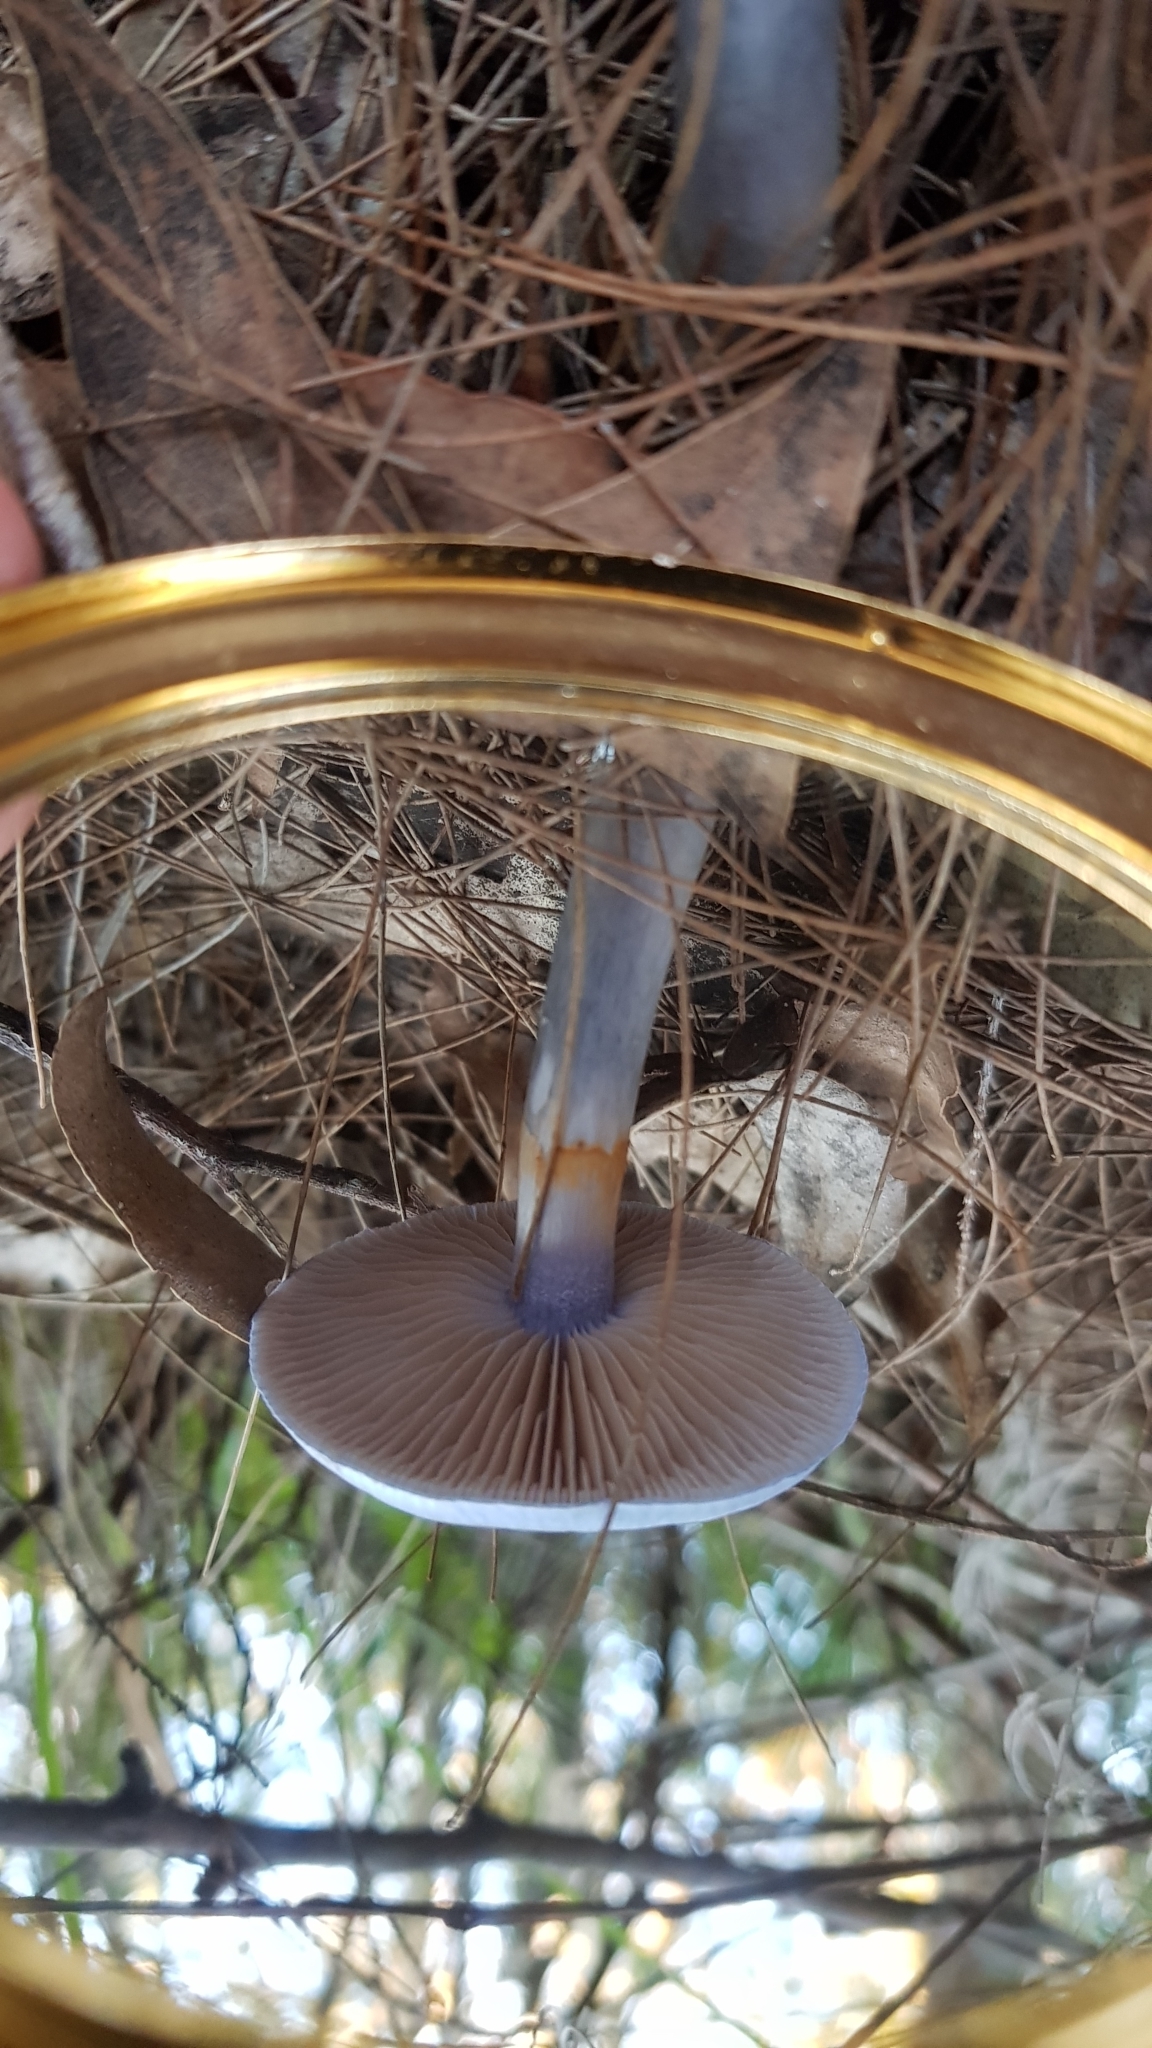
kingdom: Fungi
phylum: Basidiomycota
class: Agaricomycetes
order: Agaricales
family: Cortinariaceae
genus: Cortinarius
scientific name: Cortinarius rotundisporus
